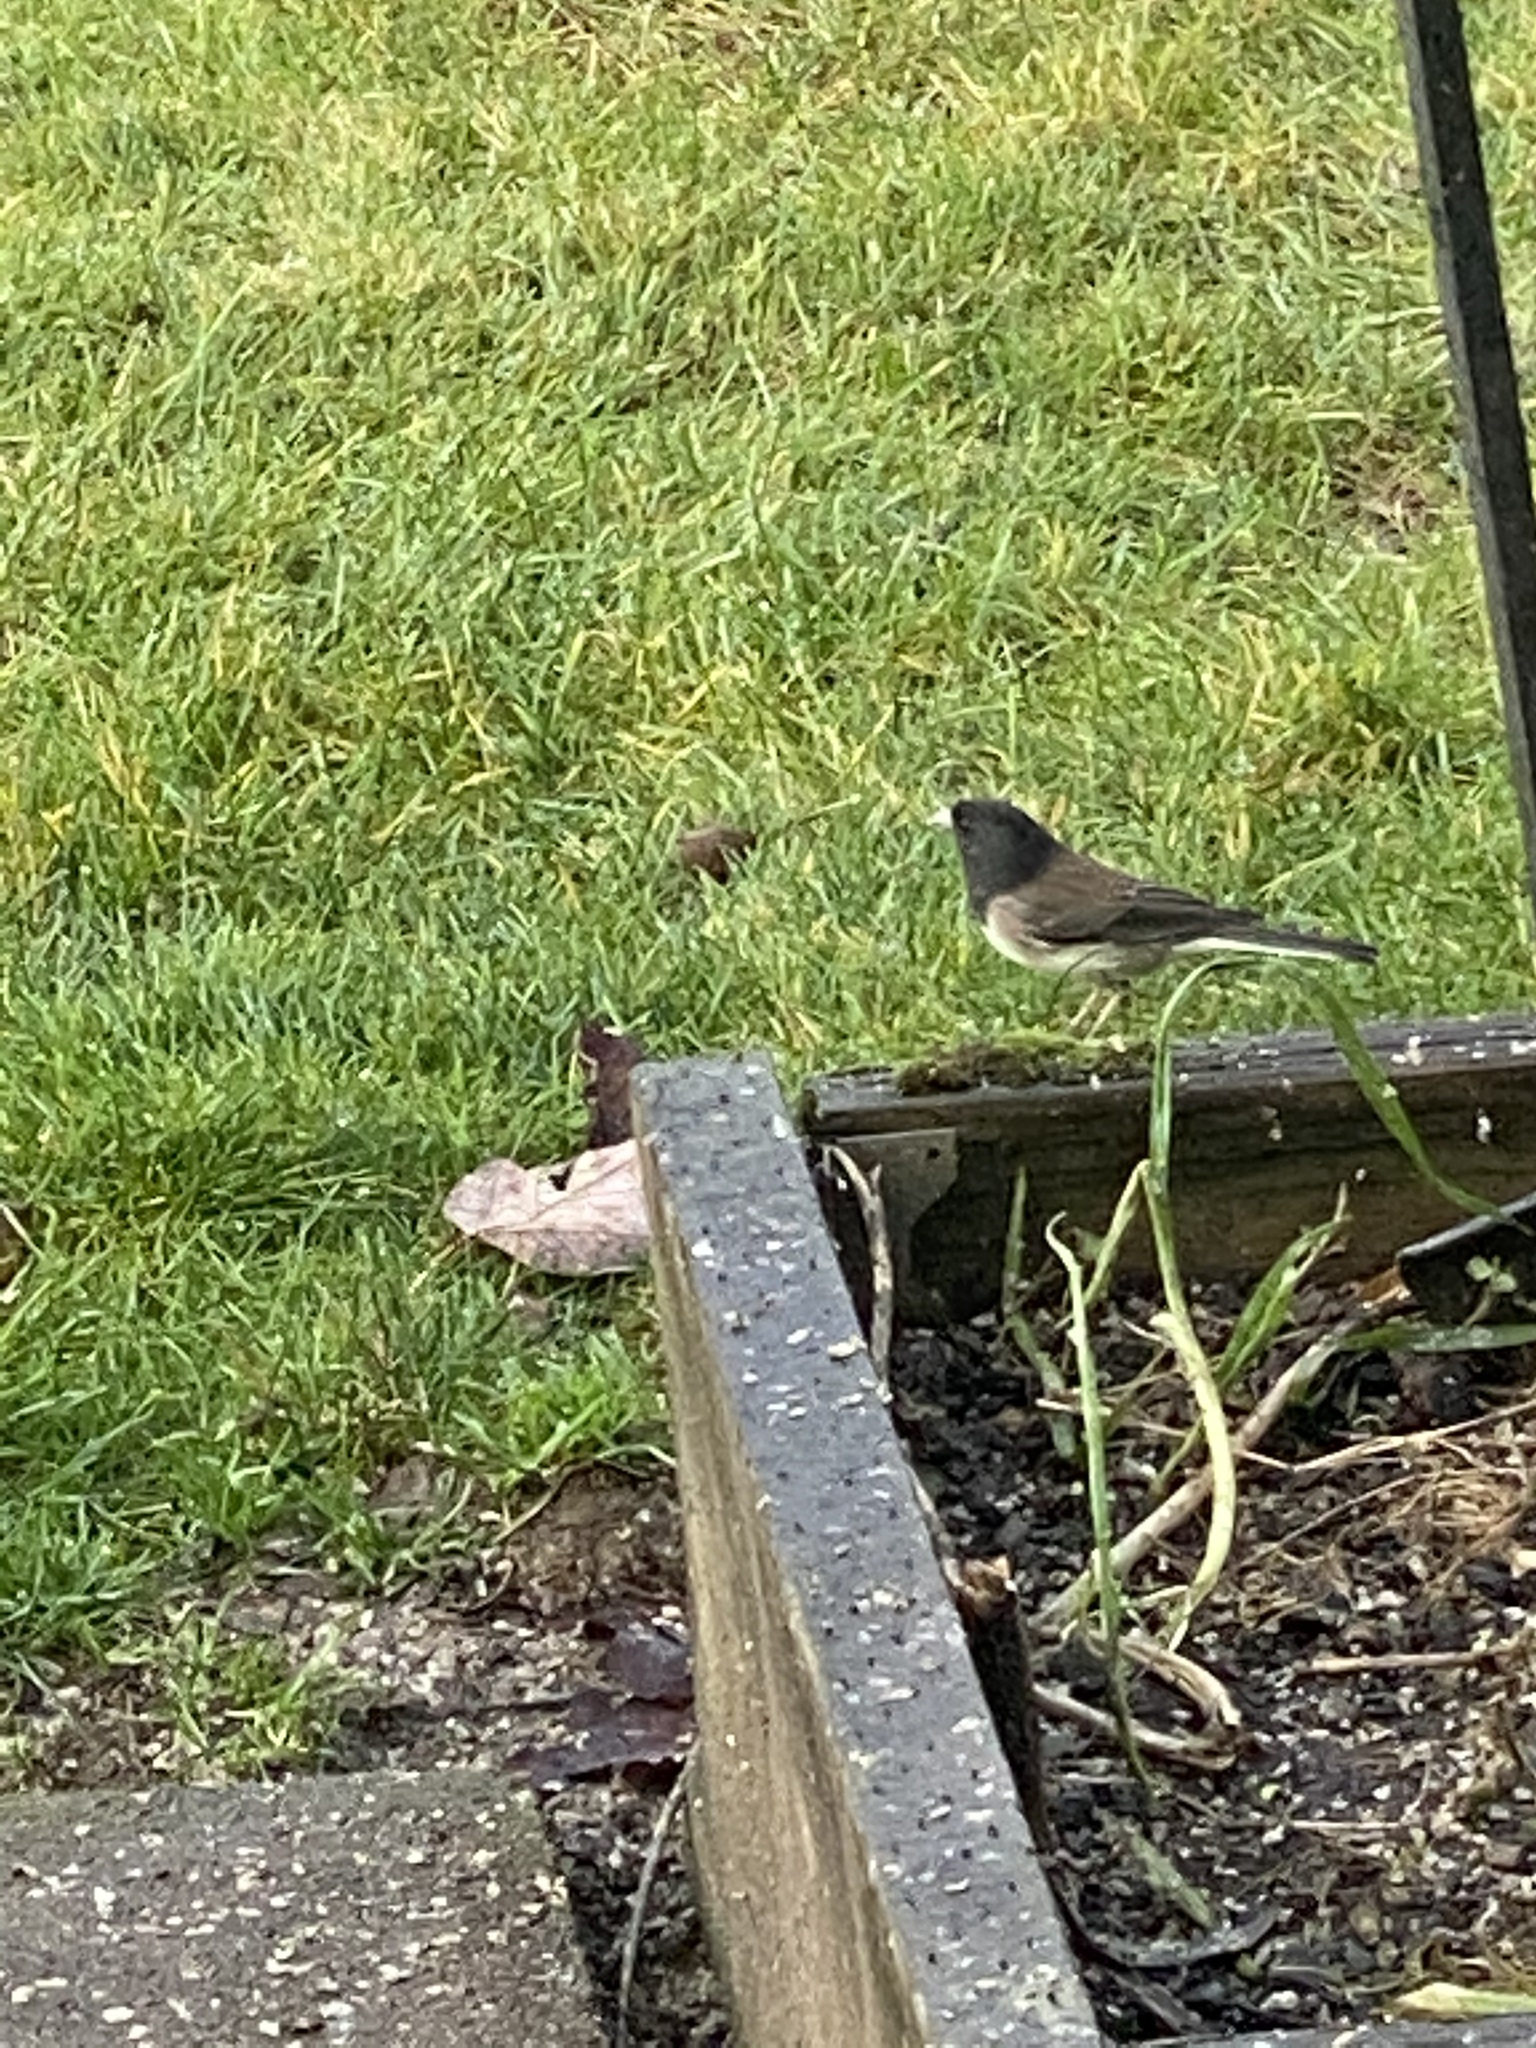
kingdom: Animalia
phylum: Chordata
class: Aves
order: Passeriformes
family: Passerellidae
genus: Junco
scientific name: Junco hyemalis
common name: Dark-eyed junco
